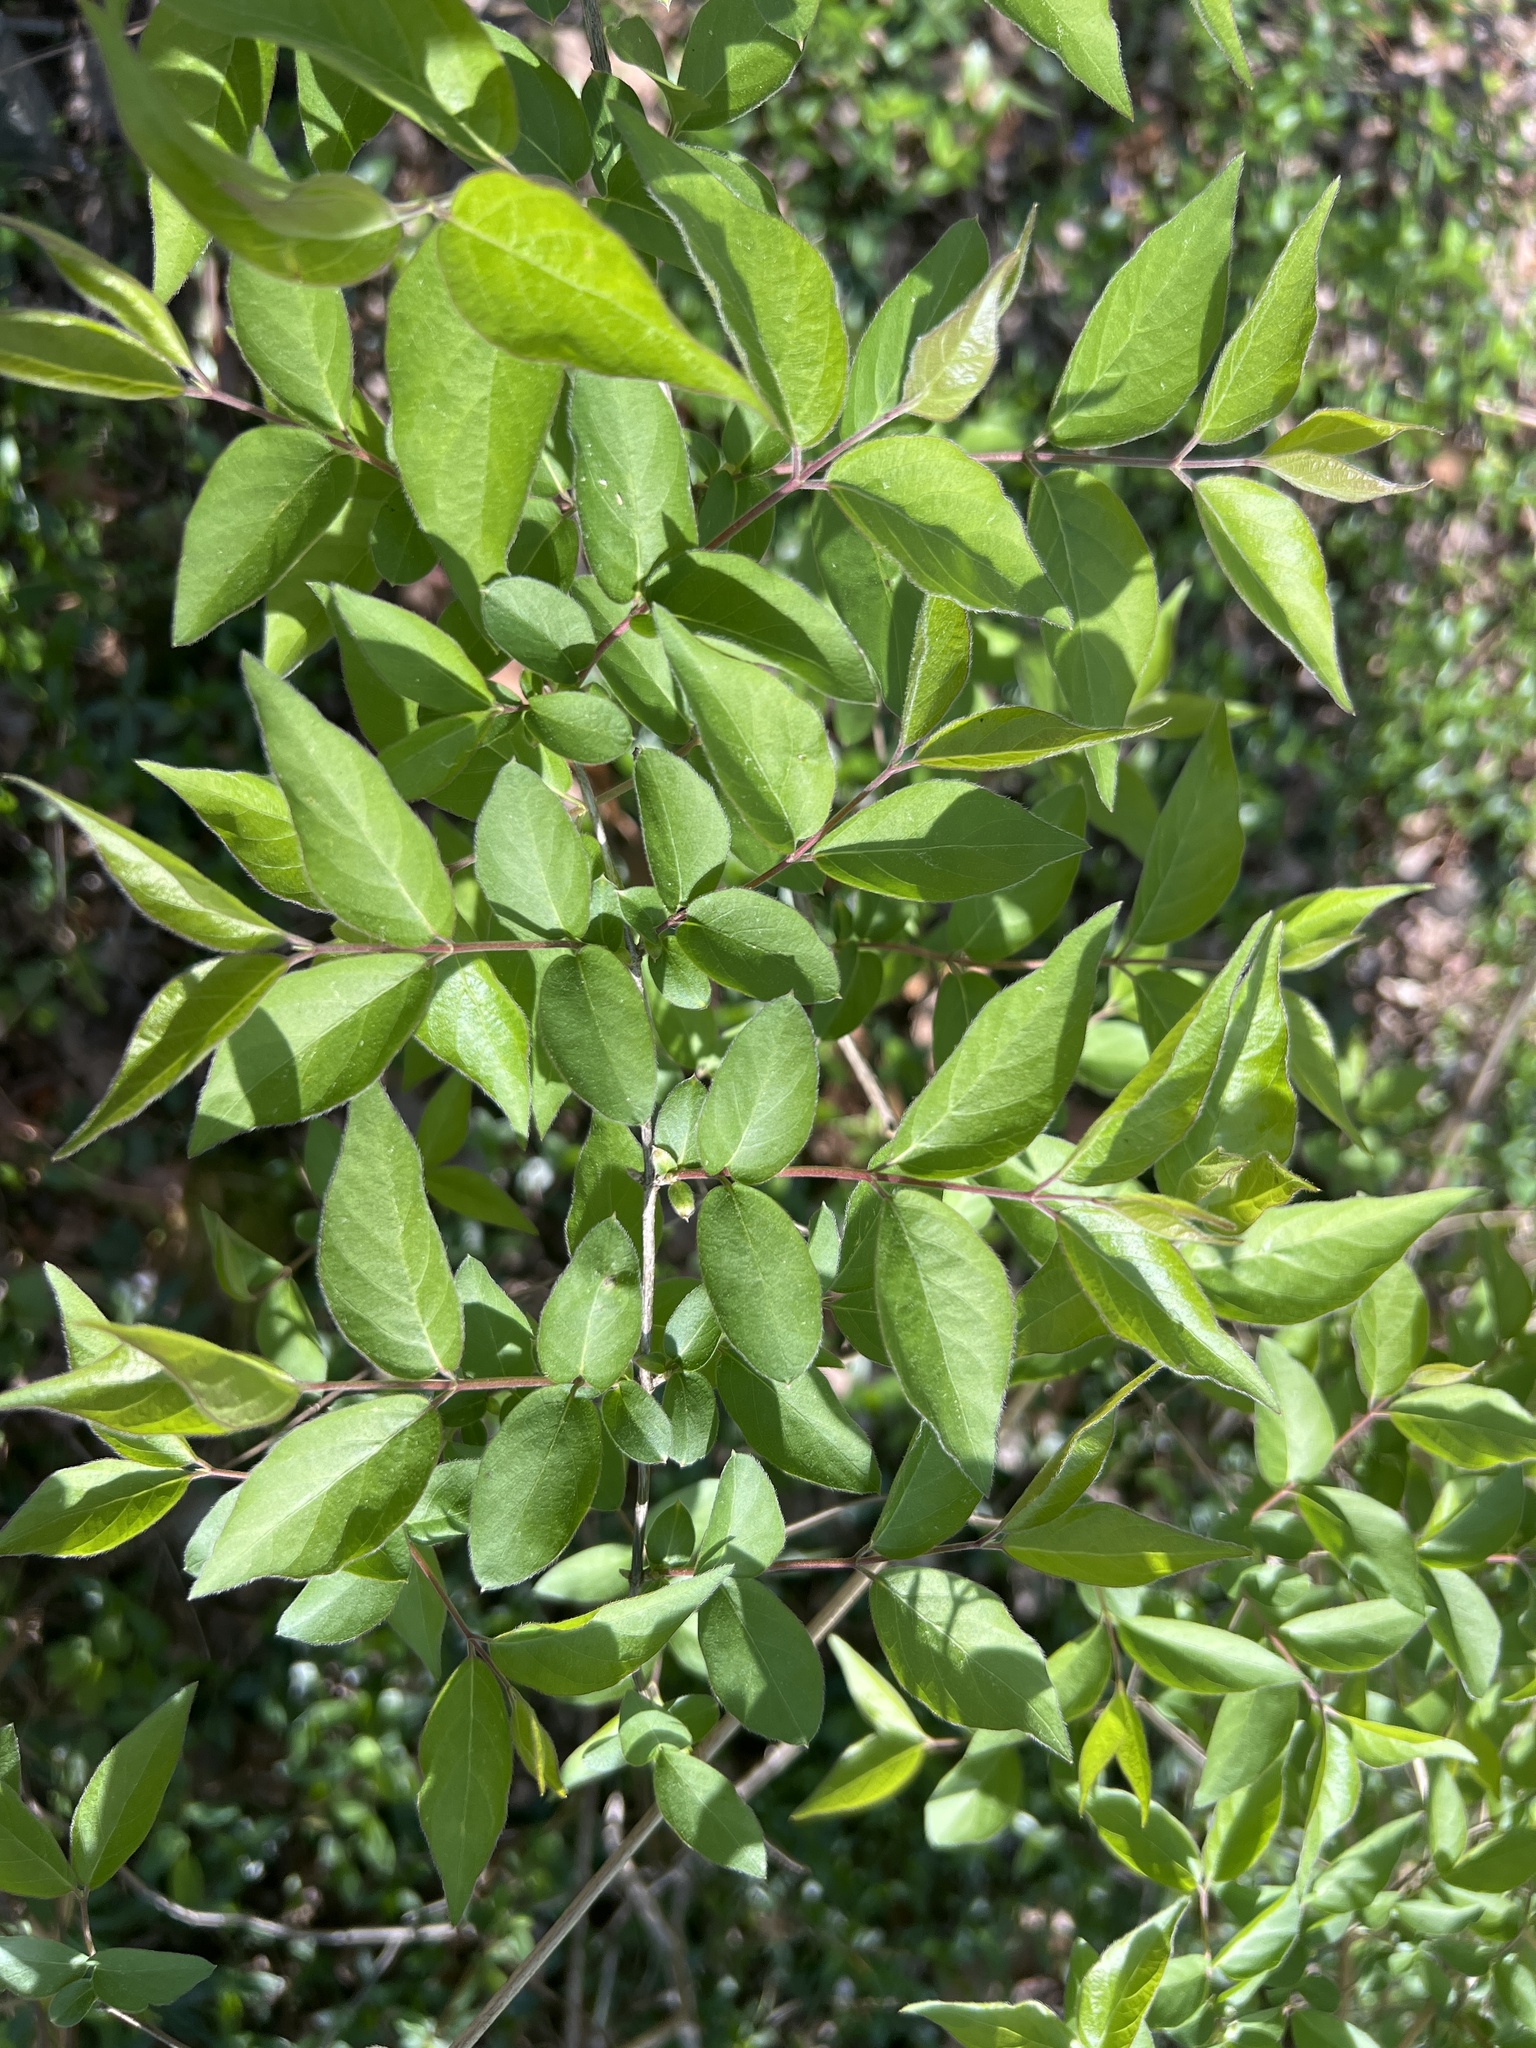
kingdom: Plantae
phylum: Tracheophyta
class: Magnoliopsida
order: Dipsacales
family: Caprifoliaceae
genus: Lonicera
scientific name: Lonicera maackii
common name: Amur honeysuckle
